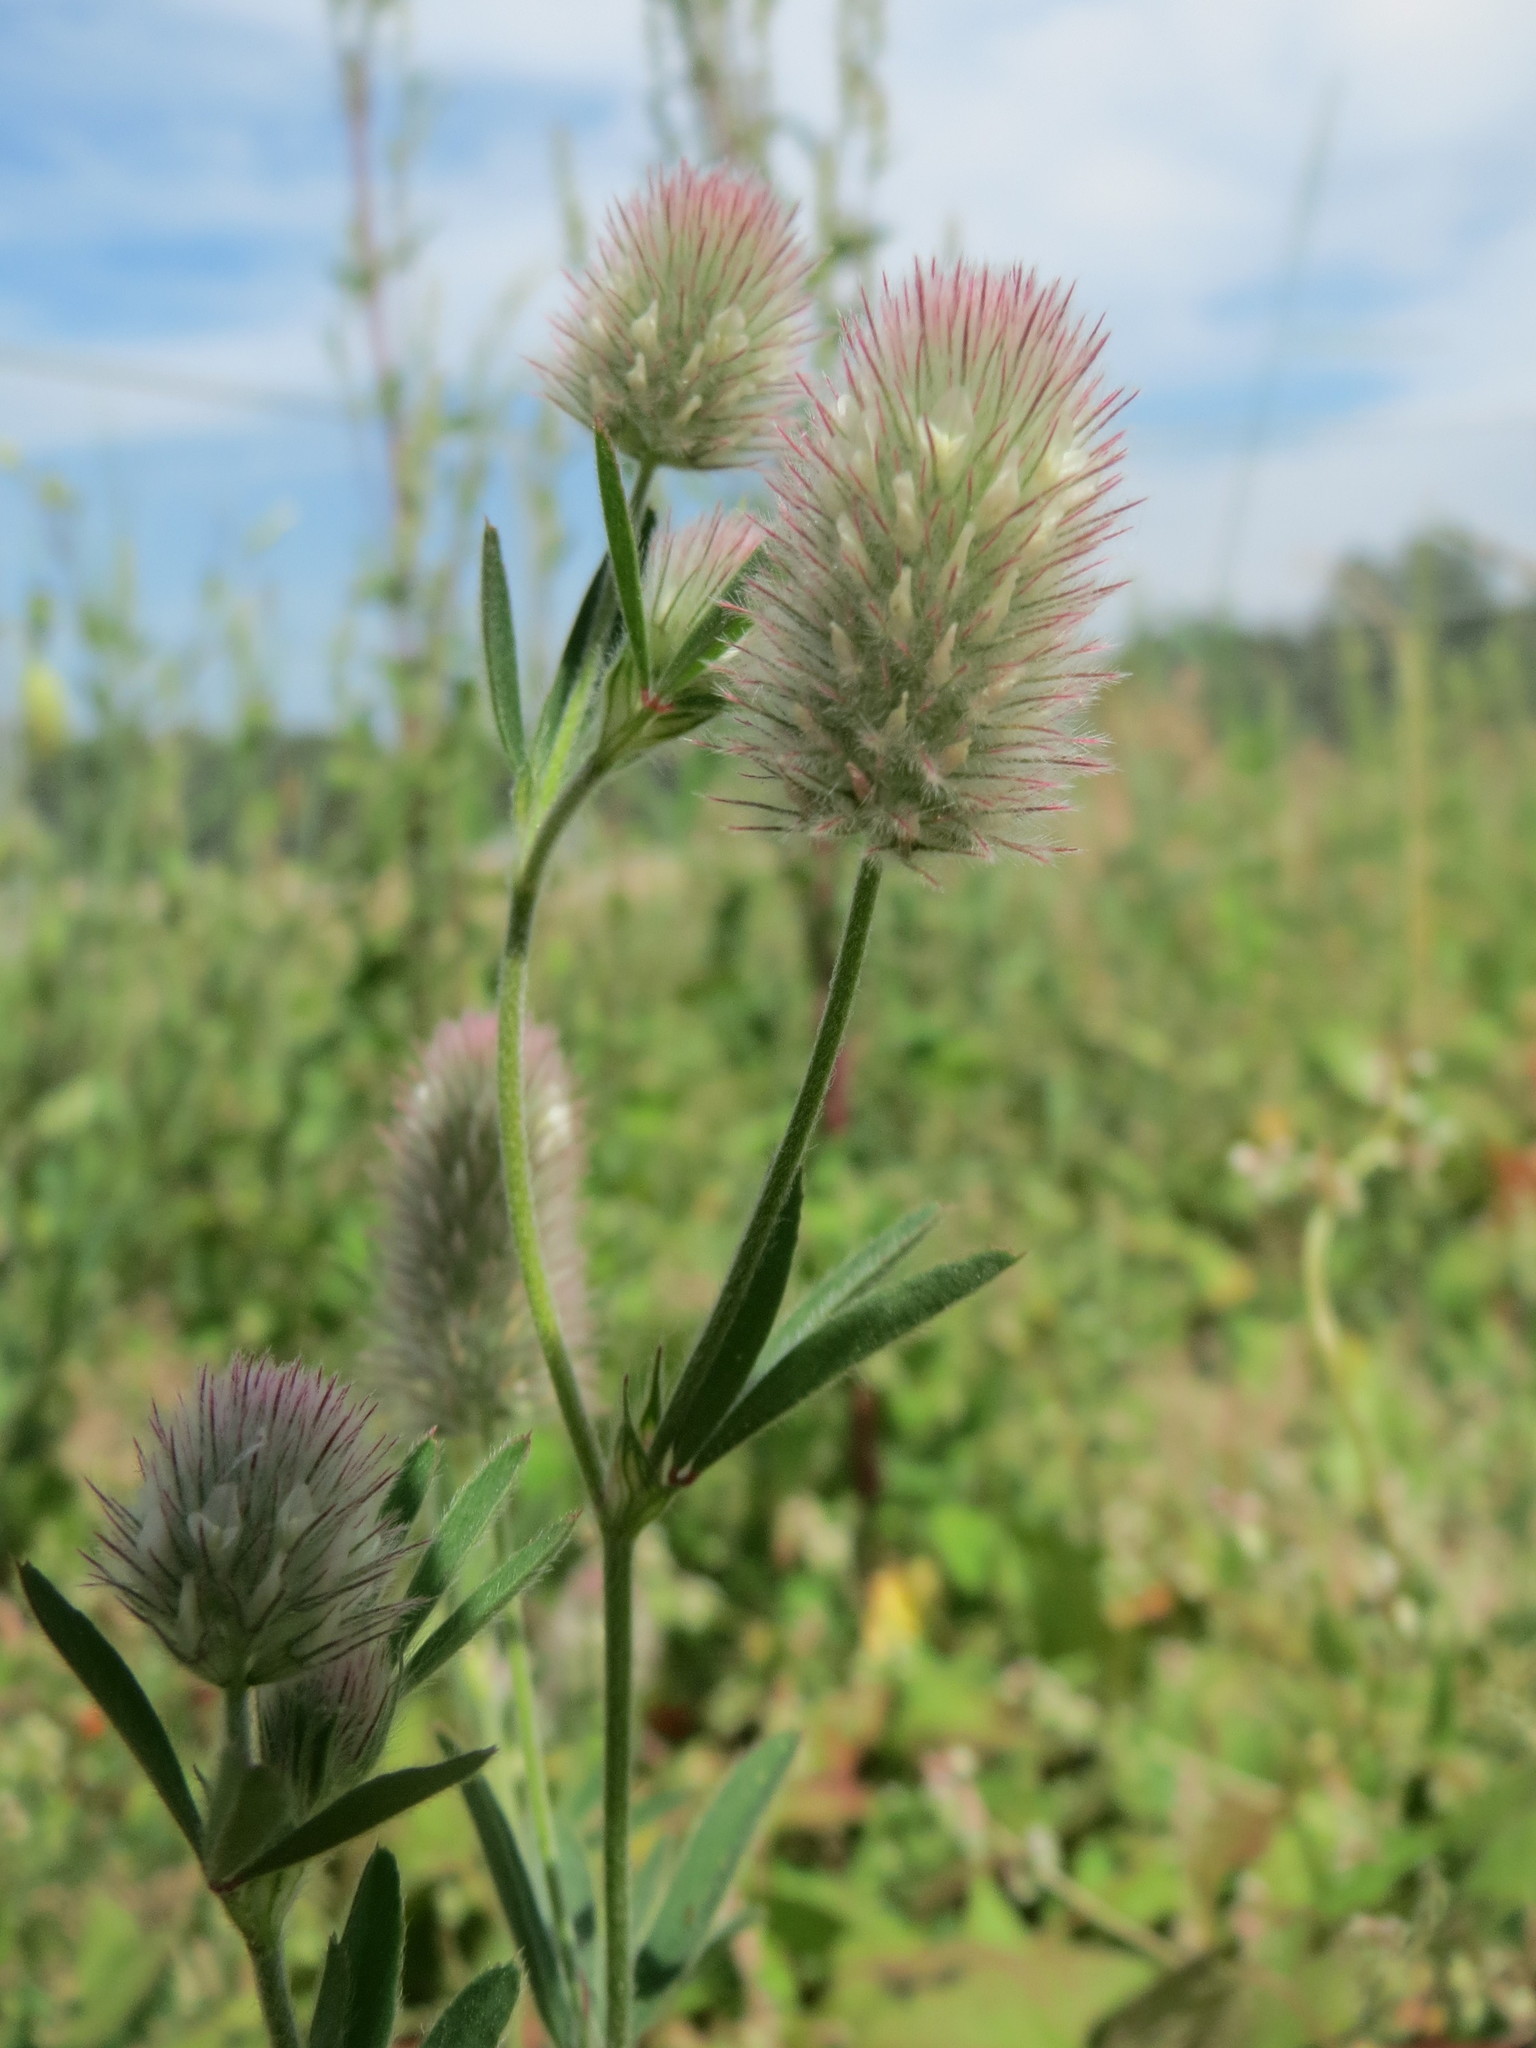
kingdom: Plantae
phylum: Tracheophyta
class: Magnoliopsida
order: Fabales
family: Fabaceae
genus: Trifolium
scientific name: Trifolium arvense
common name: Hare's-foot clover
